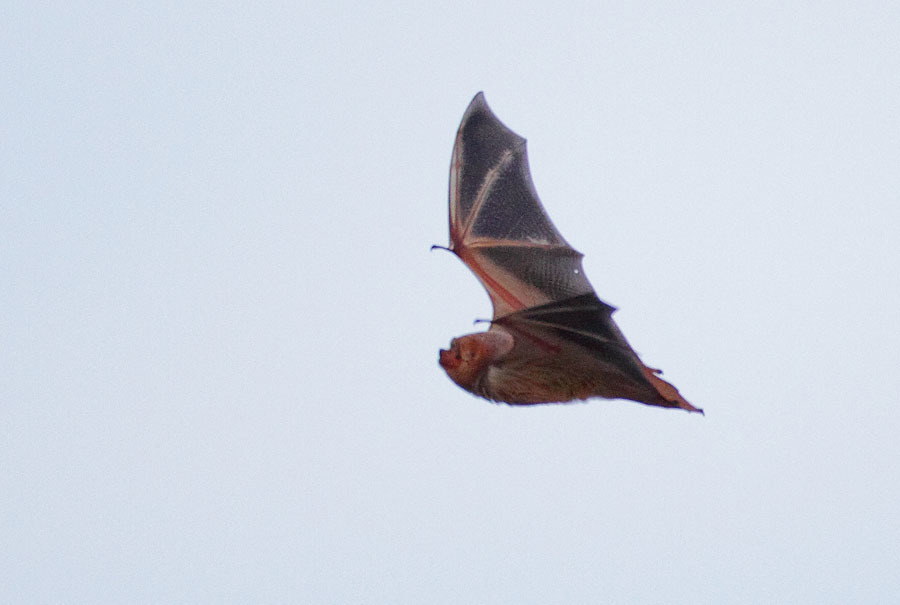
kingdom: Animalia
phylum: Chordata
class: Mammalia
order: Chiroptera
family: Vespertilionidae
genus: Lasiurus
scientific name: Lasiurus borealis
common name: Eastern red bat
